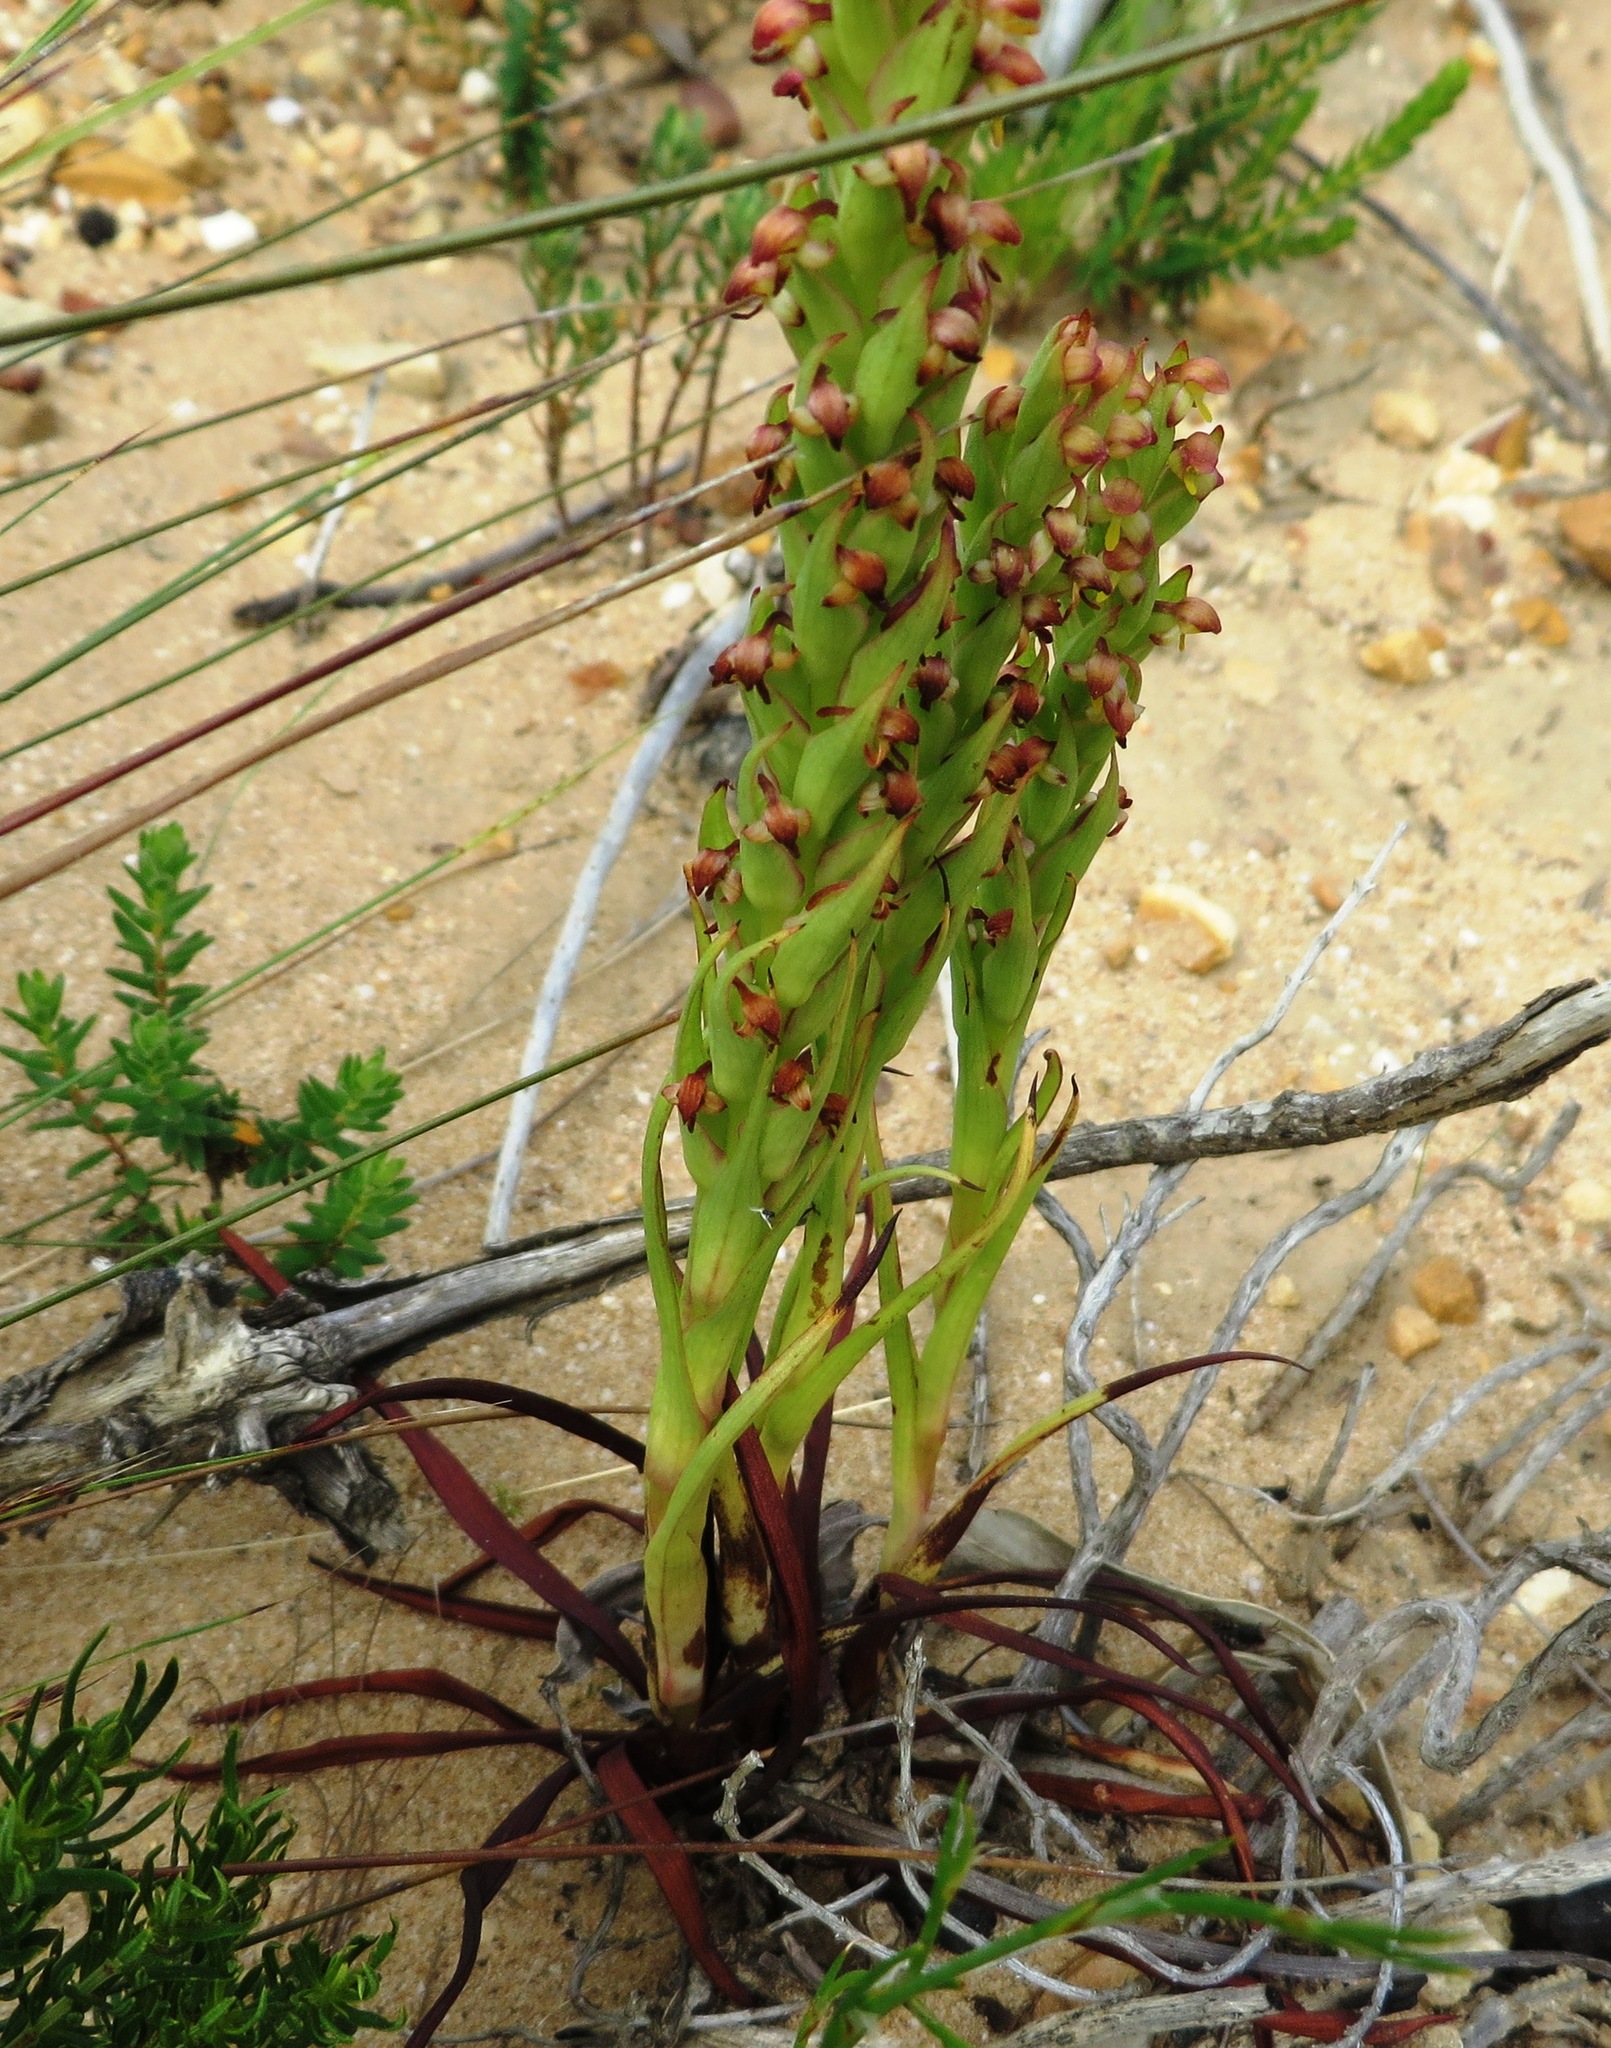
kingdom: Plantae
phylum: Tracheophyta
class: Liliopsida
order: Asparagales
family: Orchidaceae
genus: Disa
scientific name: Disa bracteata
